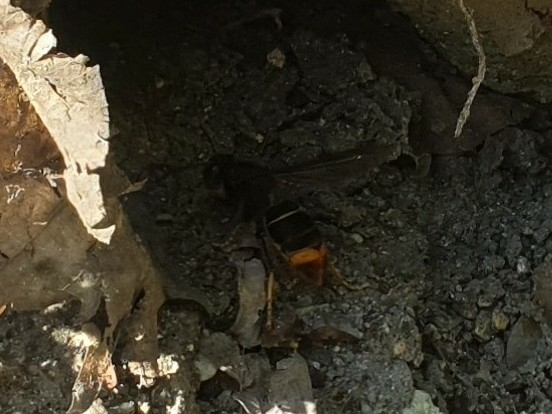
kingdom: Animalia
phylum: Arthropoda
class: Insecta
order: Hymenoptera
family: Vespidae
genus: Vespa
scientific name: Vespa velutina
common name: Asian hornet
